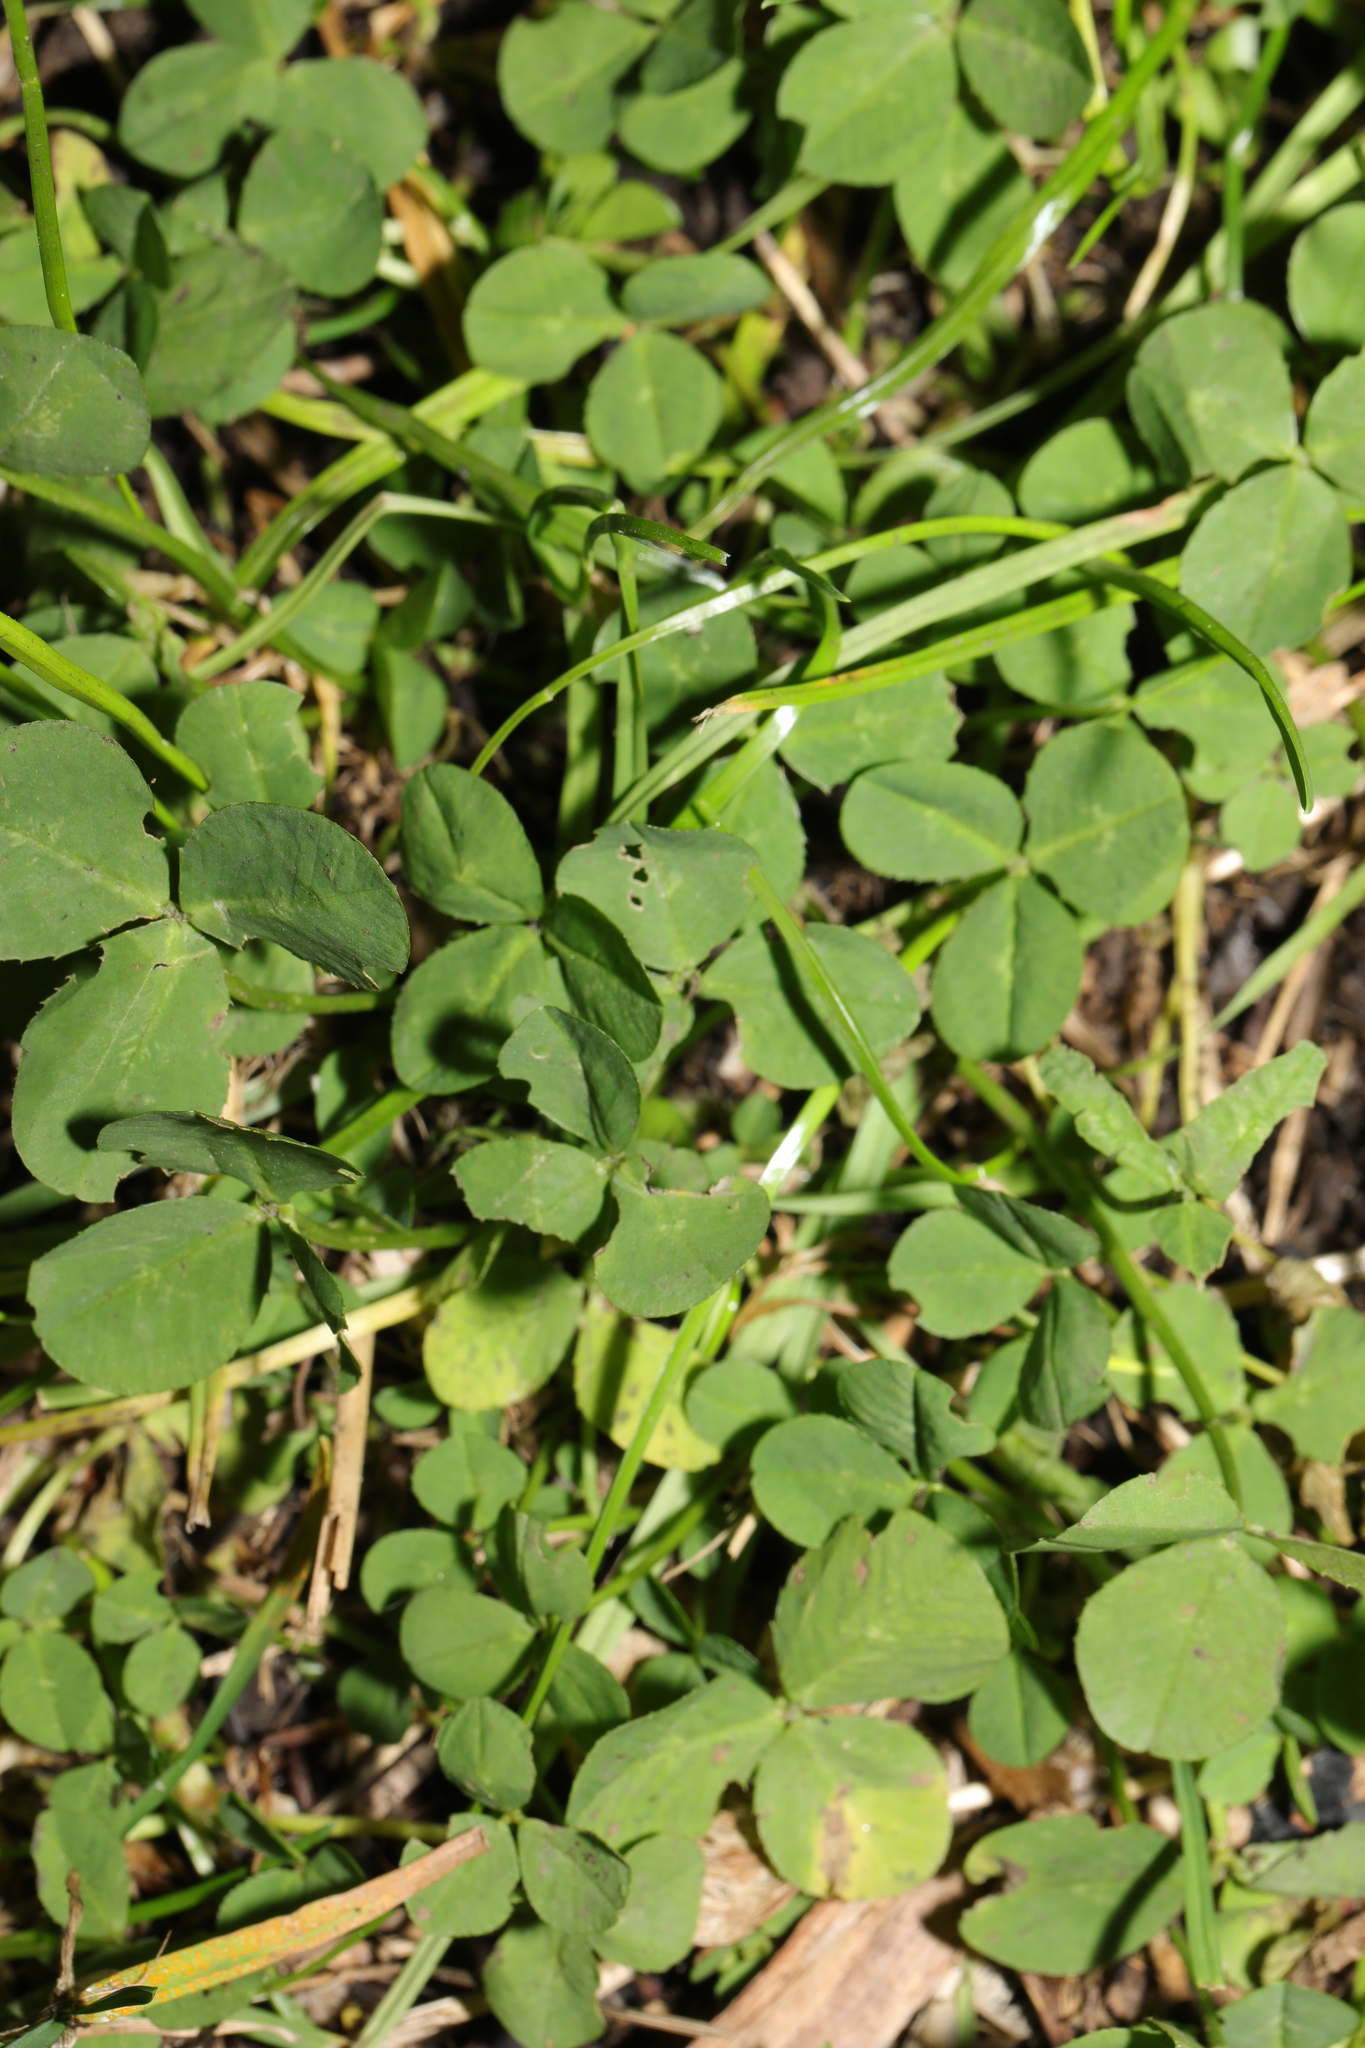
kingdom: Plantae
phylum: Tracheophyta
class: Magnoliopsida
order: Fabales
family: Fabaceae
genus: Trifolium
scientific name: Trifolium repens
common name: White clover
